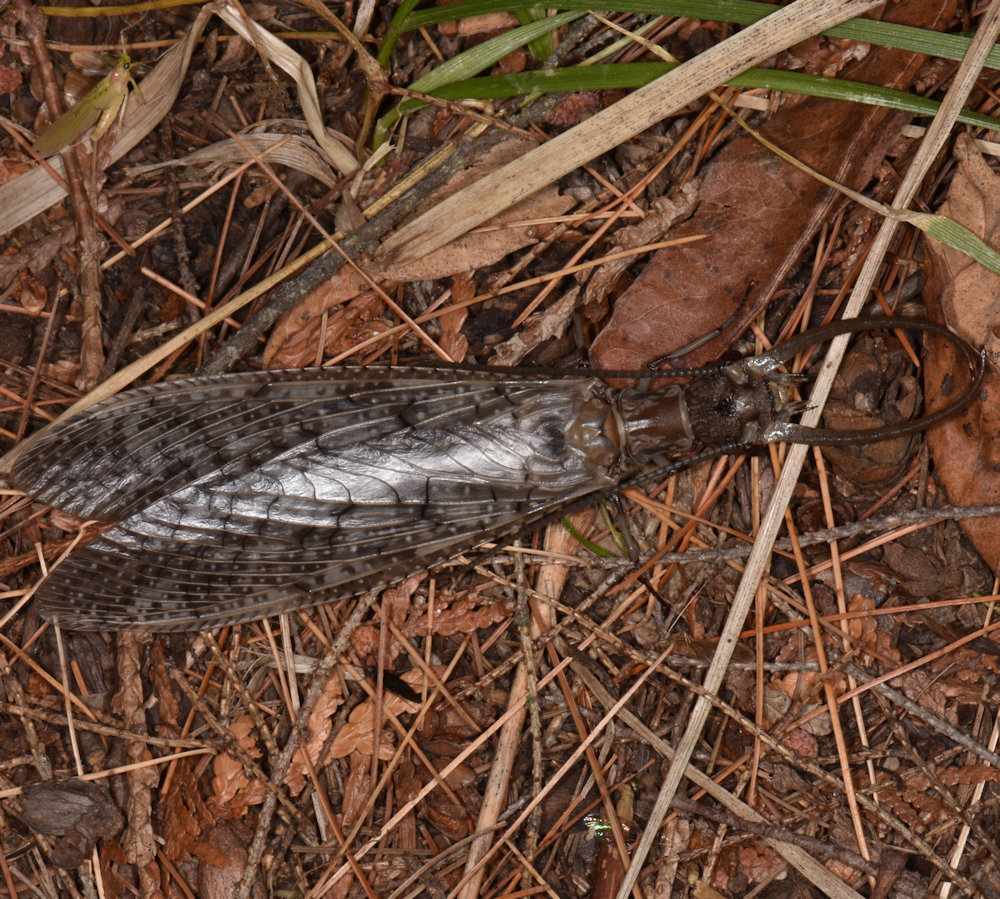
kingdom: Animalia
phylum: Arthropoda
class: Insecta
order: Megaloptera
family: Corydalidae
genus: Corydalus
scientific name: Corydalus cornutus
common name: Dobsonfly
